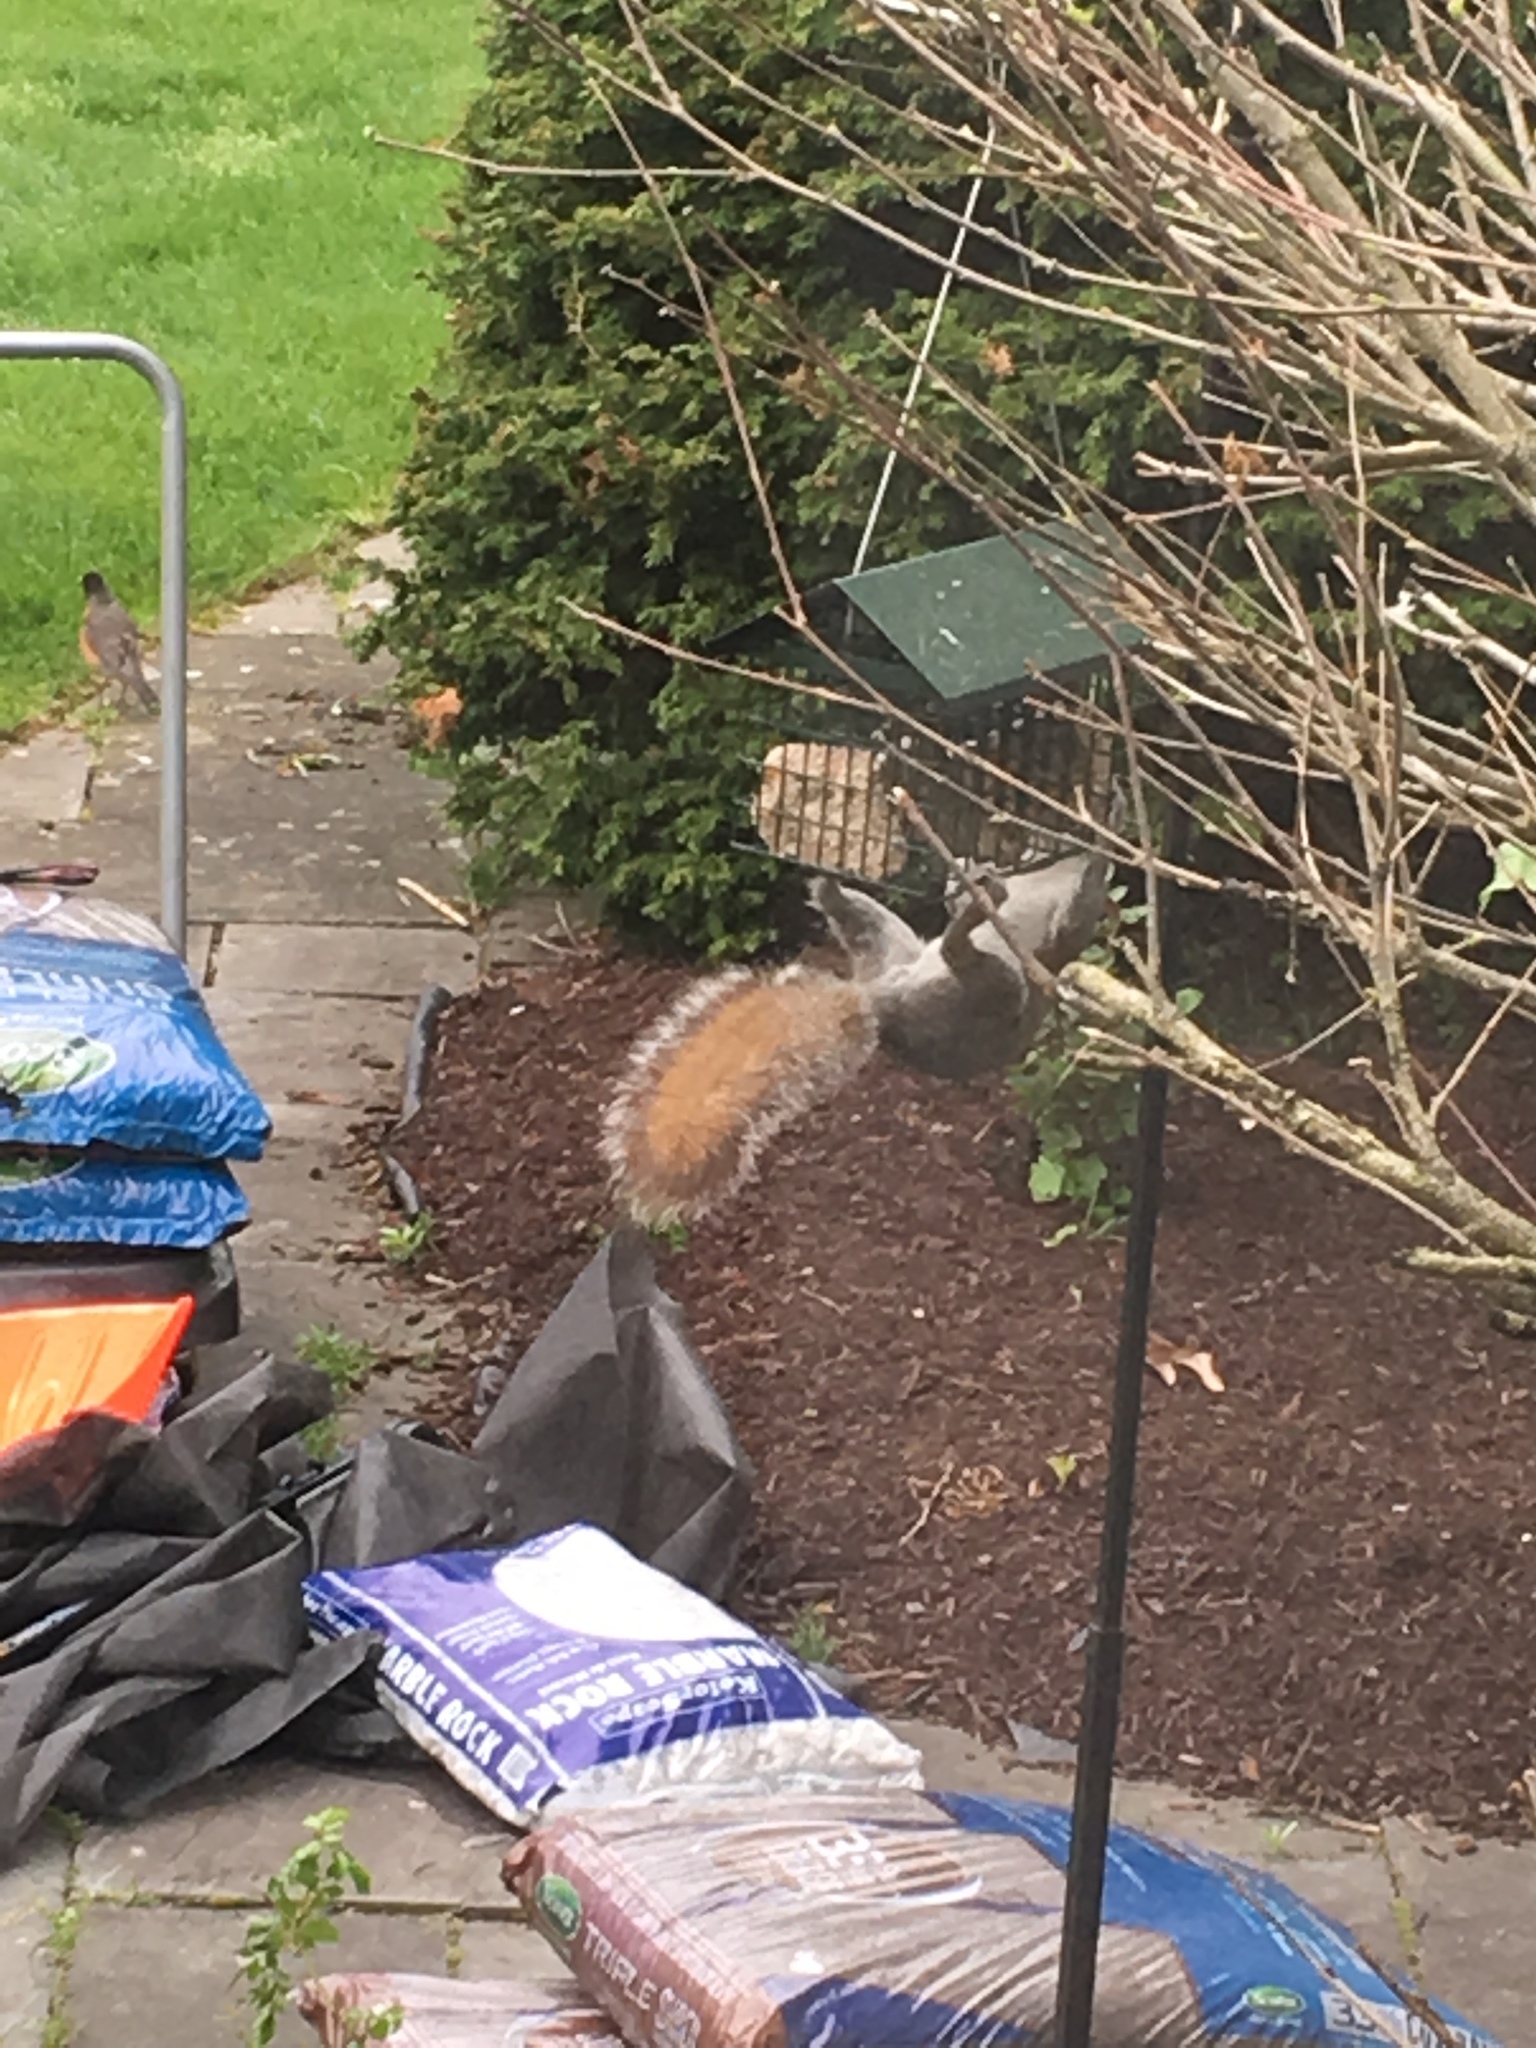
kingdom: Animalia
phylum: Chordata
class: Mammalia
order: Rodentia
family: Sciuridae
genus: Sciurus
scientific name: Sciurus carolinensis
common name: Eastern gray squirrel
